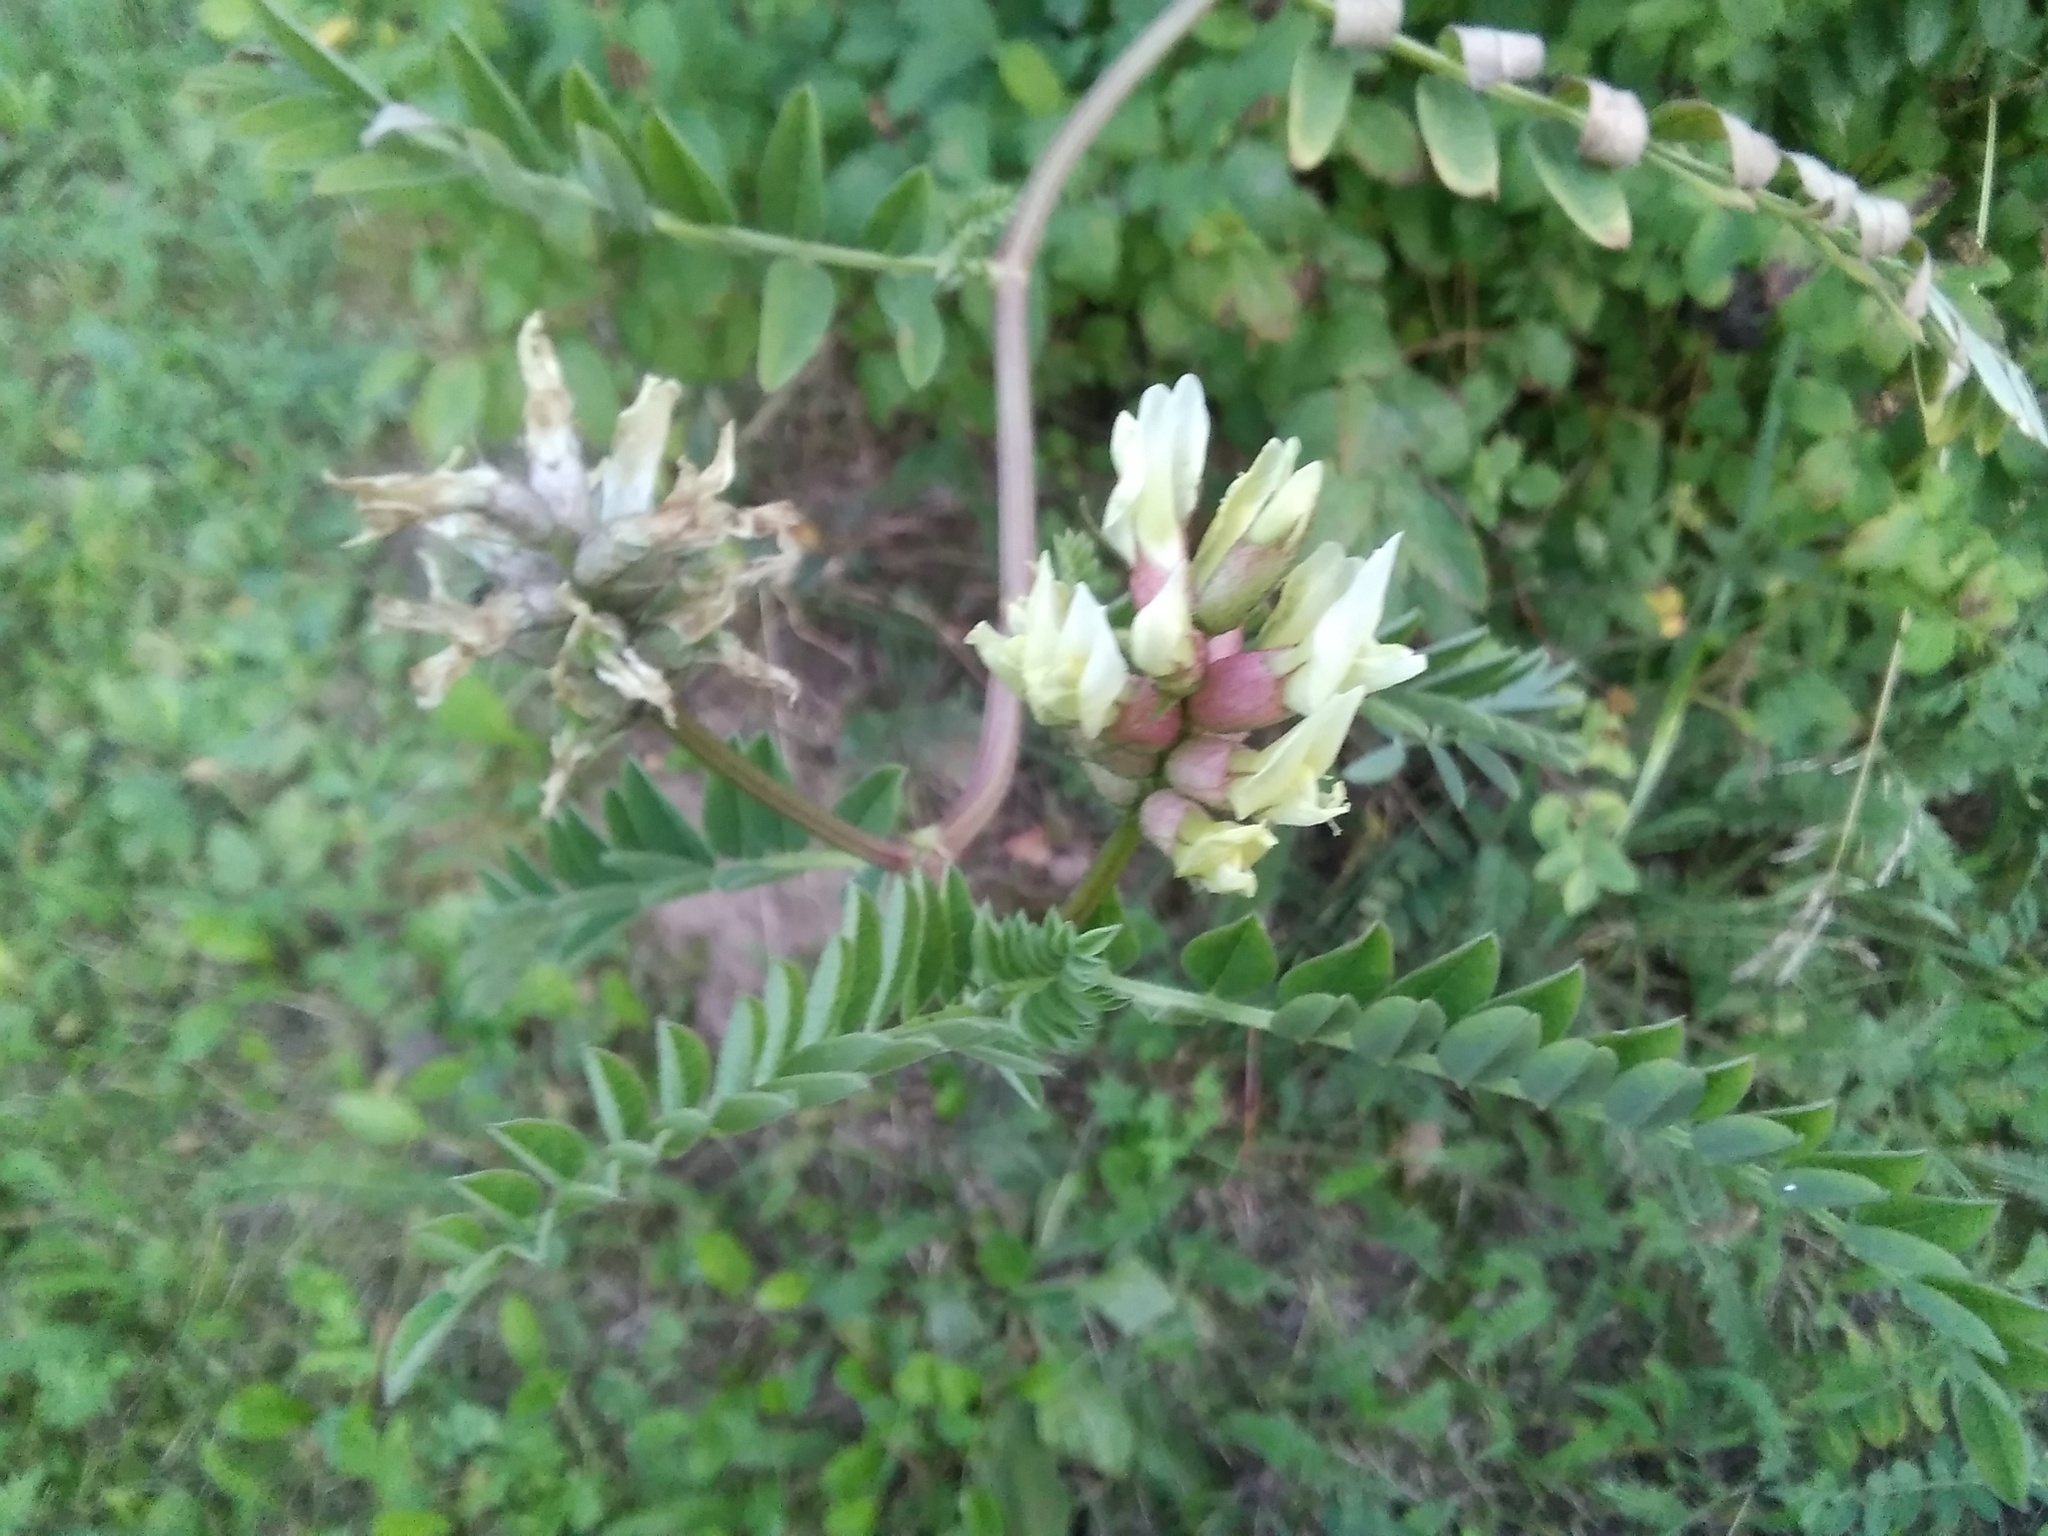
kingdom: Plantae
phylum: Tracheophyta
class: Magnoliopsida
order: Fabales
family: Fabaceae
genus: Astragalus
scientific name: Astragalus cicer
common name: Chick-pea milk-vetch
